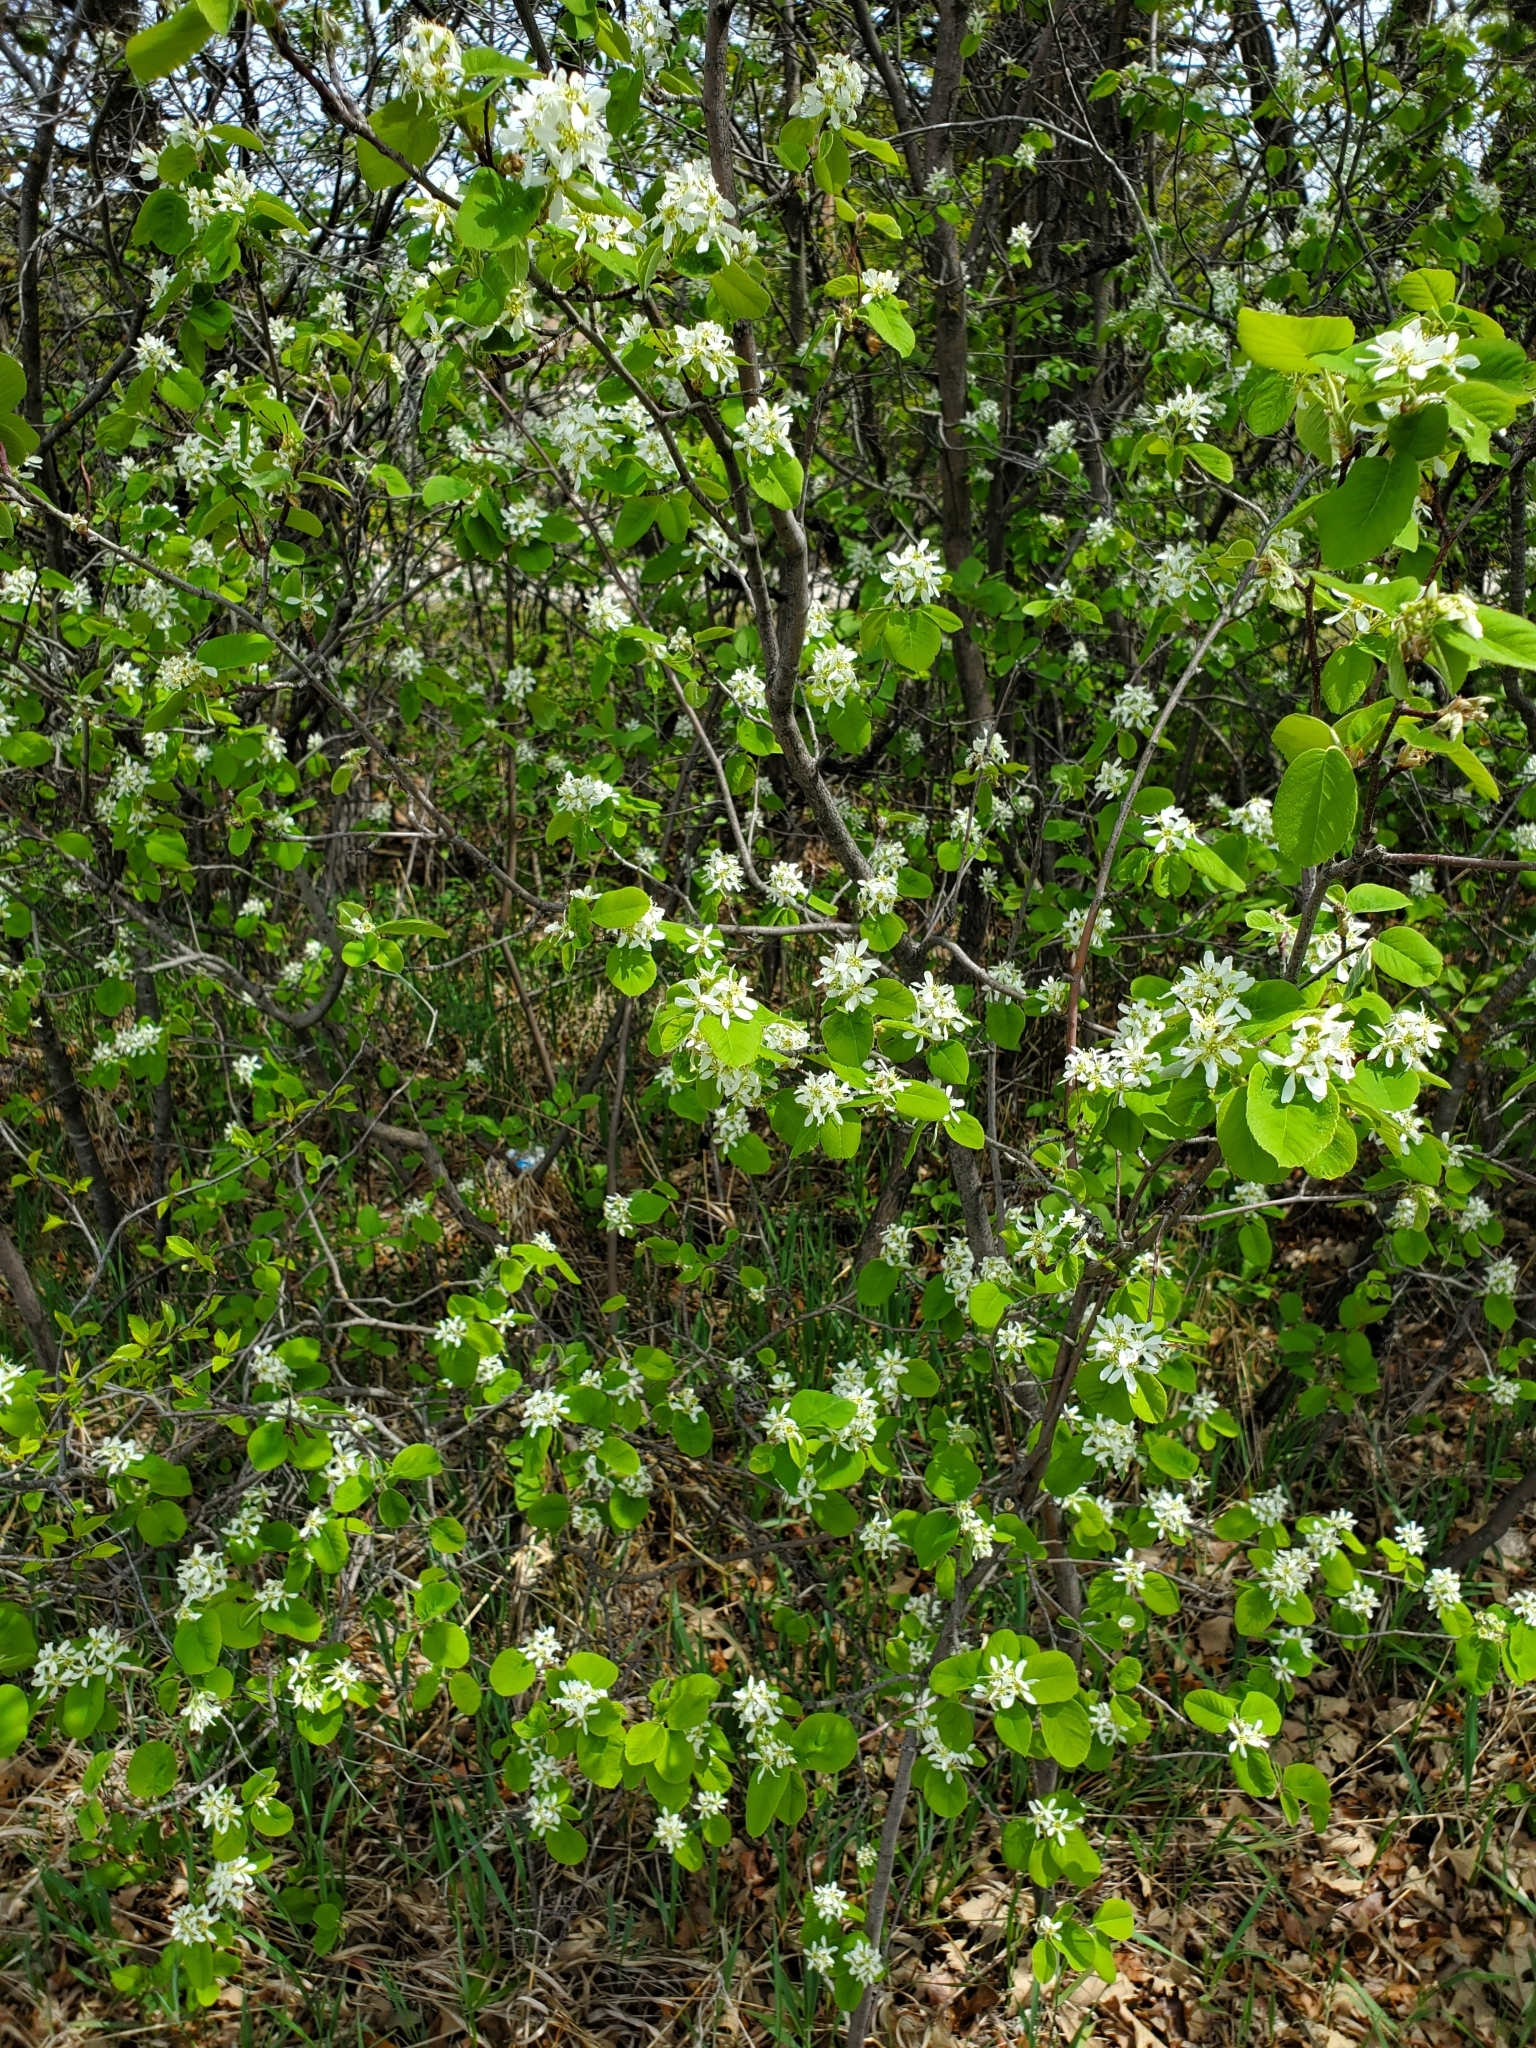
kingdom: Plantae
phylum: Tracheophyta
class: Magnoliopsida
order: Rosales
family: Rosaceae
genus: Amelanchier
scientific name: Amelanchier alnifolia
